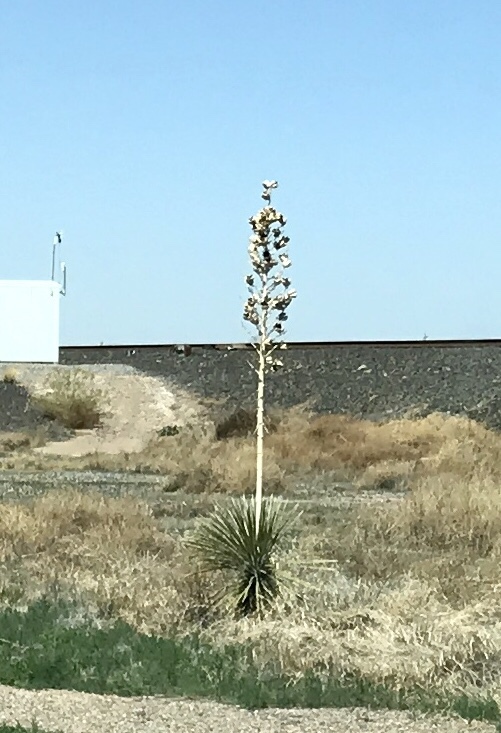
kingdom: Plantae
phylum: Tracheophyta
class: Liliopsida
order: Asparagales
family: Asparagaceae
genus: Yucca
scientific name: Yucca elata
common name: Palmella
